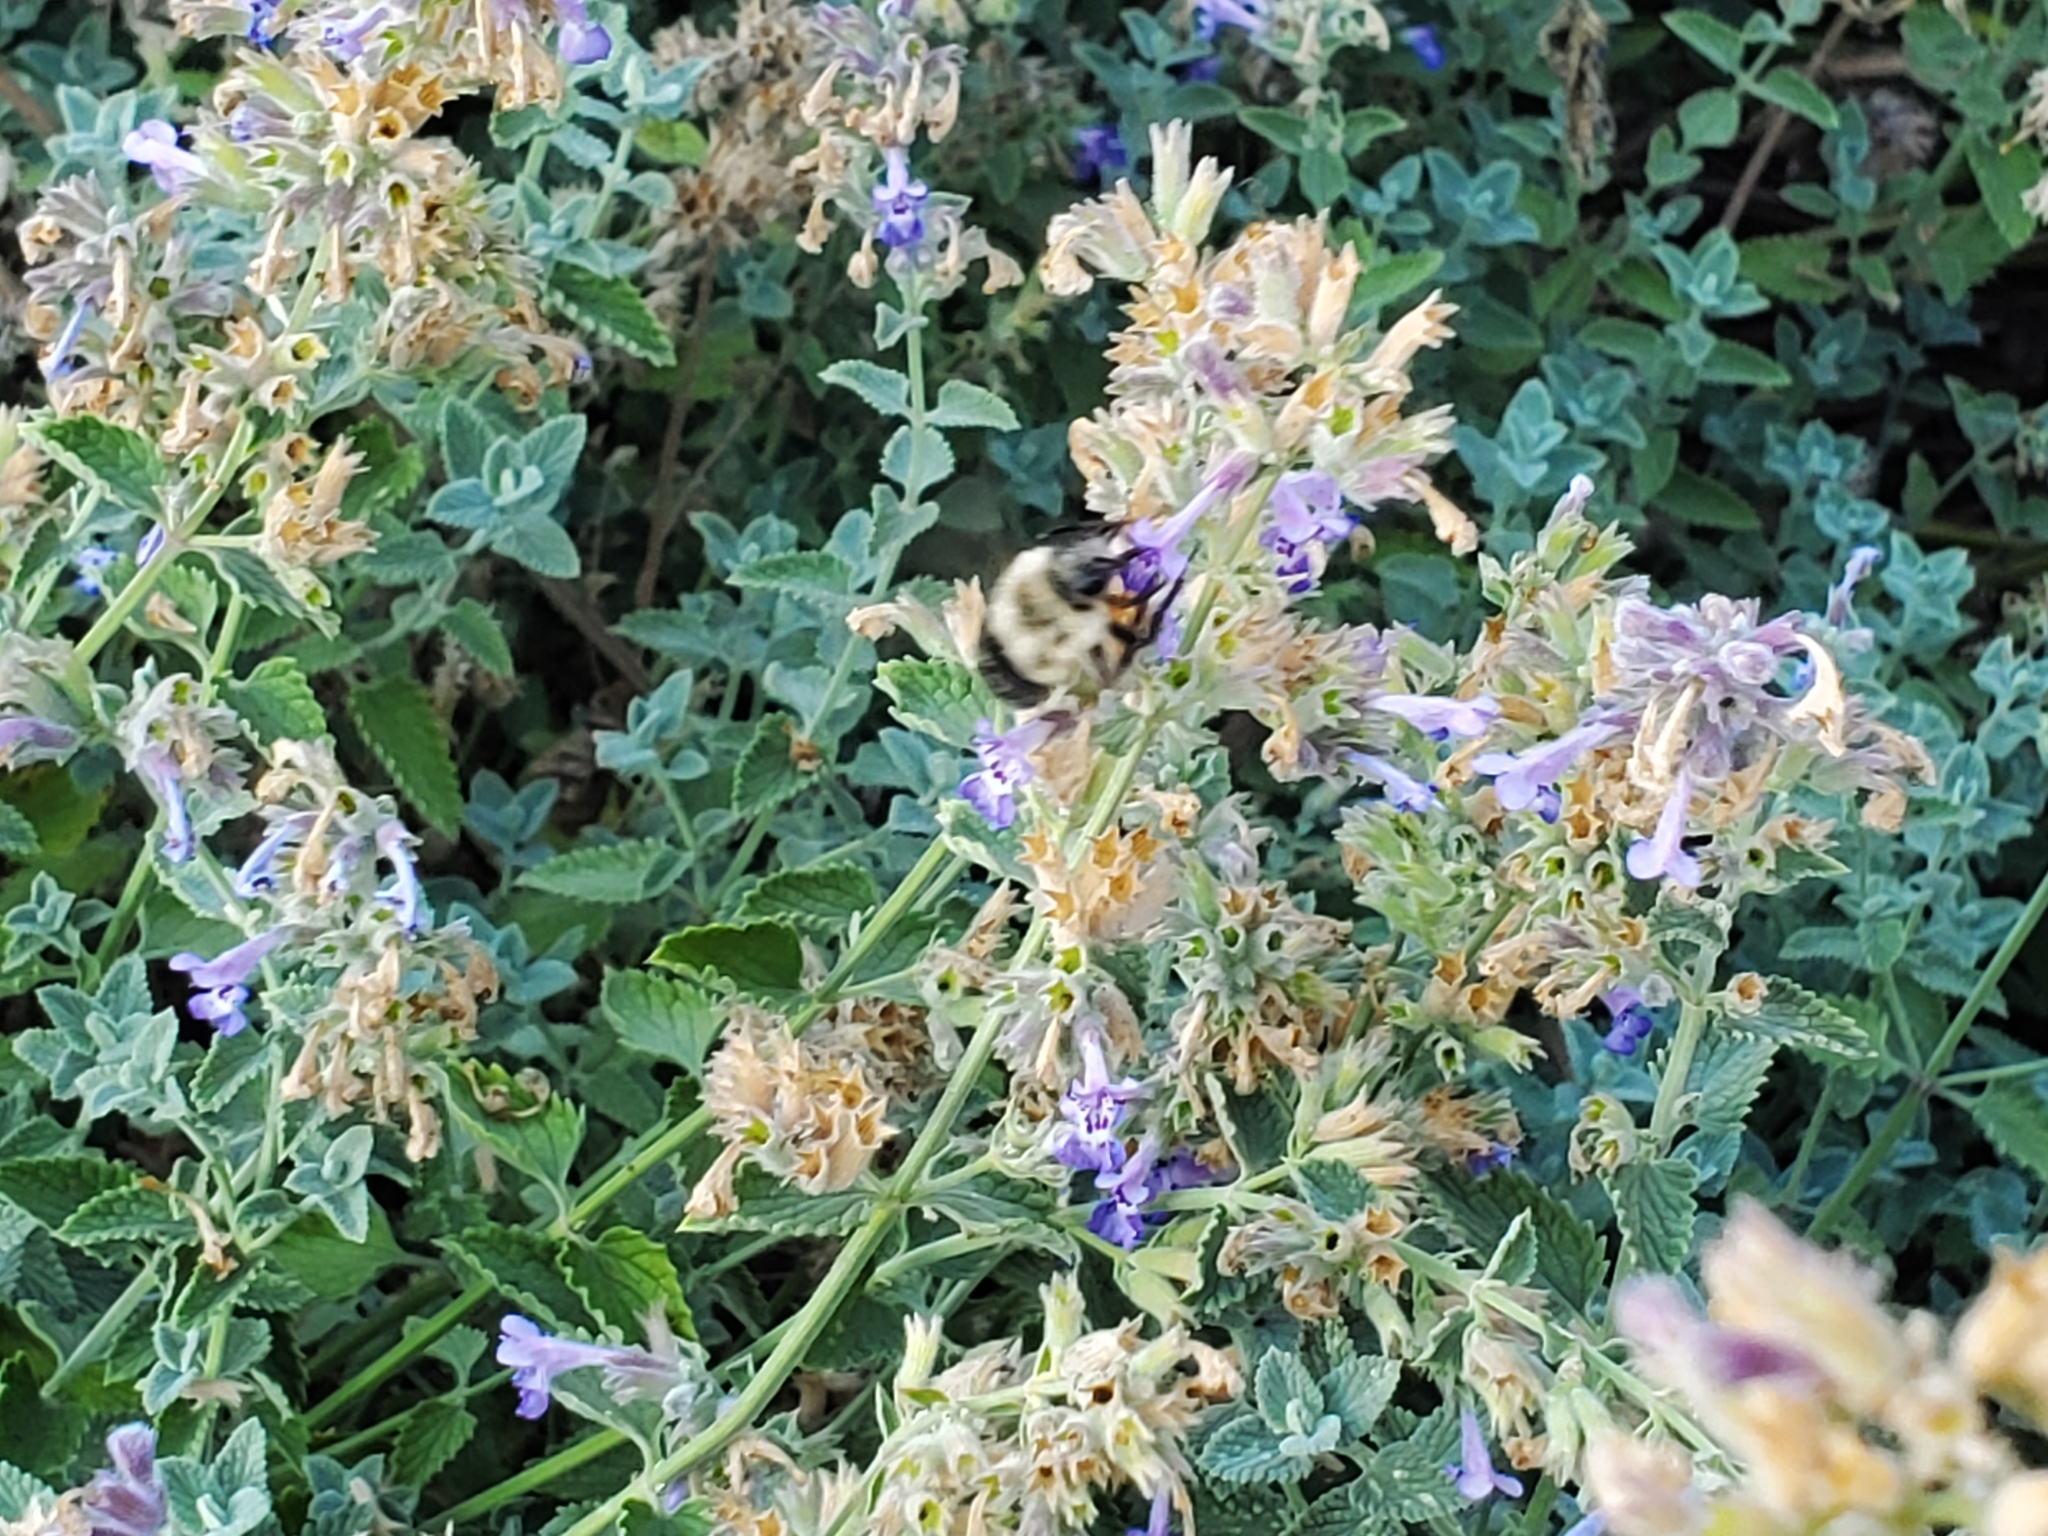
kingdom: Animalia
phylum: Arthropoda
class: Insecta
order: Hymenoptera
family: Apidae
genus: Bombus
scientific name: Bombus impatiens
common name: Common eastern bumble bee
